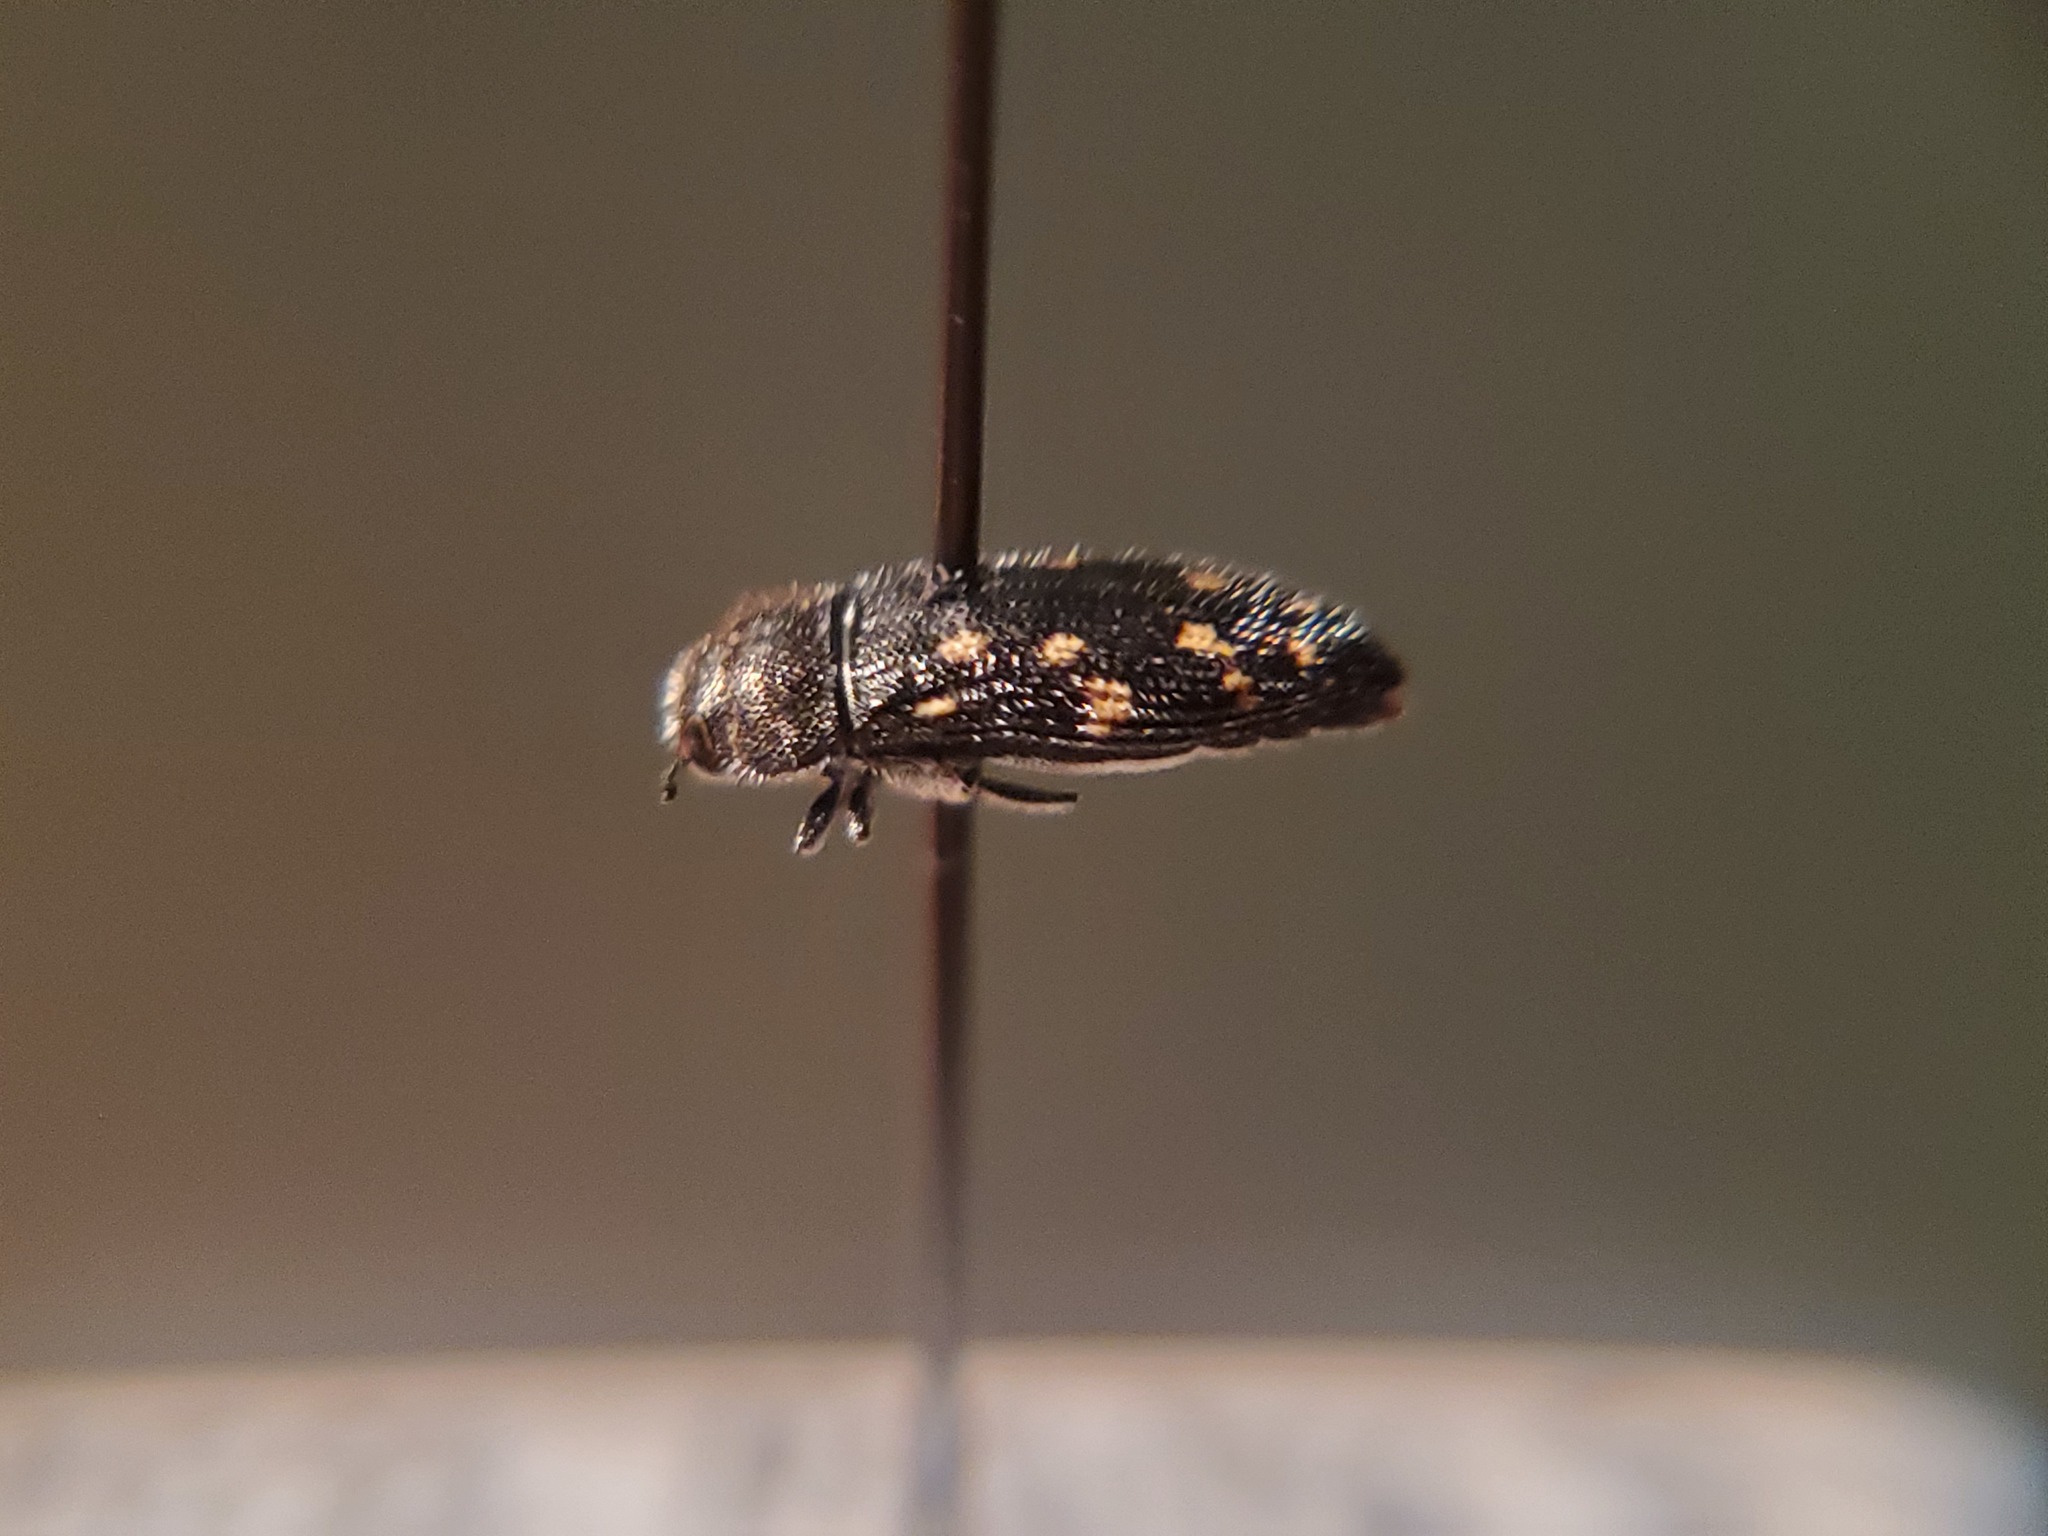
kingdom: Animalia
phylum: Arthropoda
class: Insecta
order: Coleoptera
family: Buprestidae
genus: Acmaeodera
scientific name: Acmaeodera tubulus
